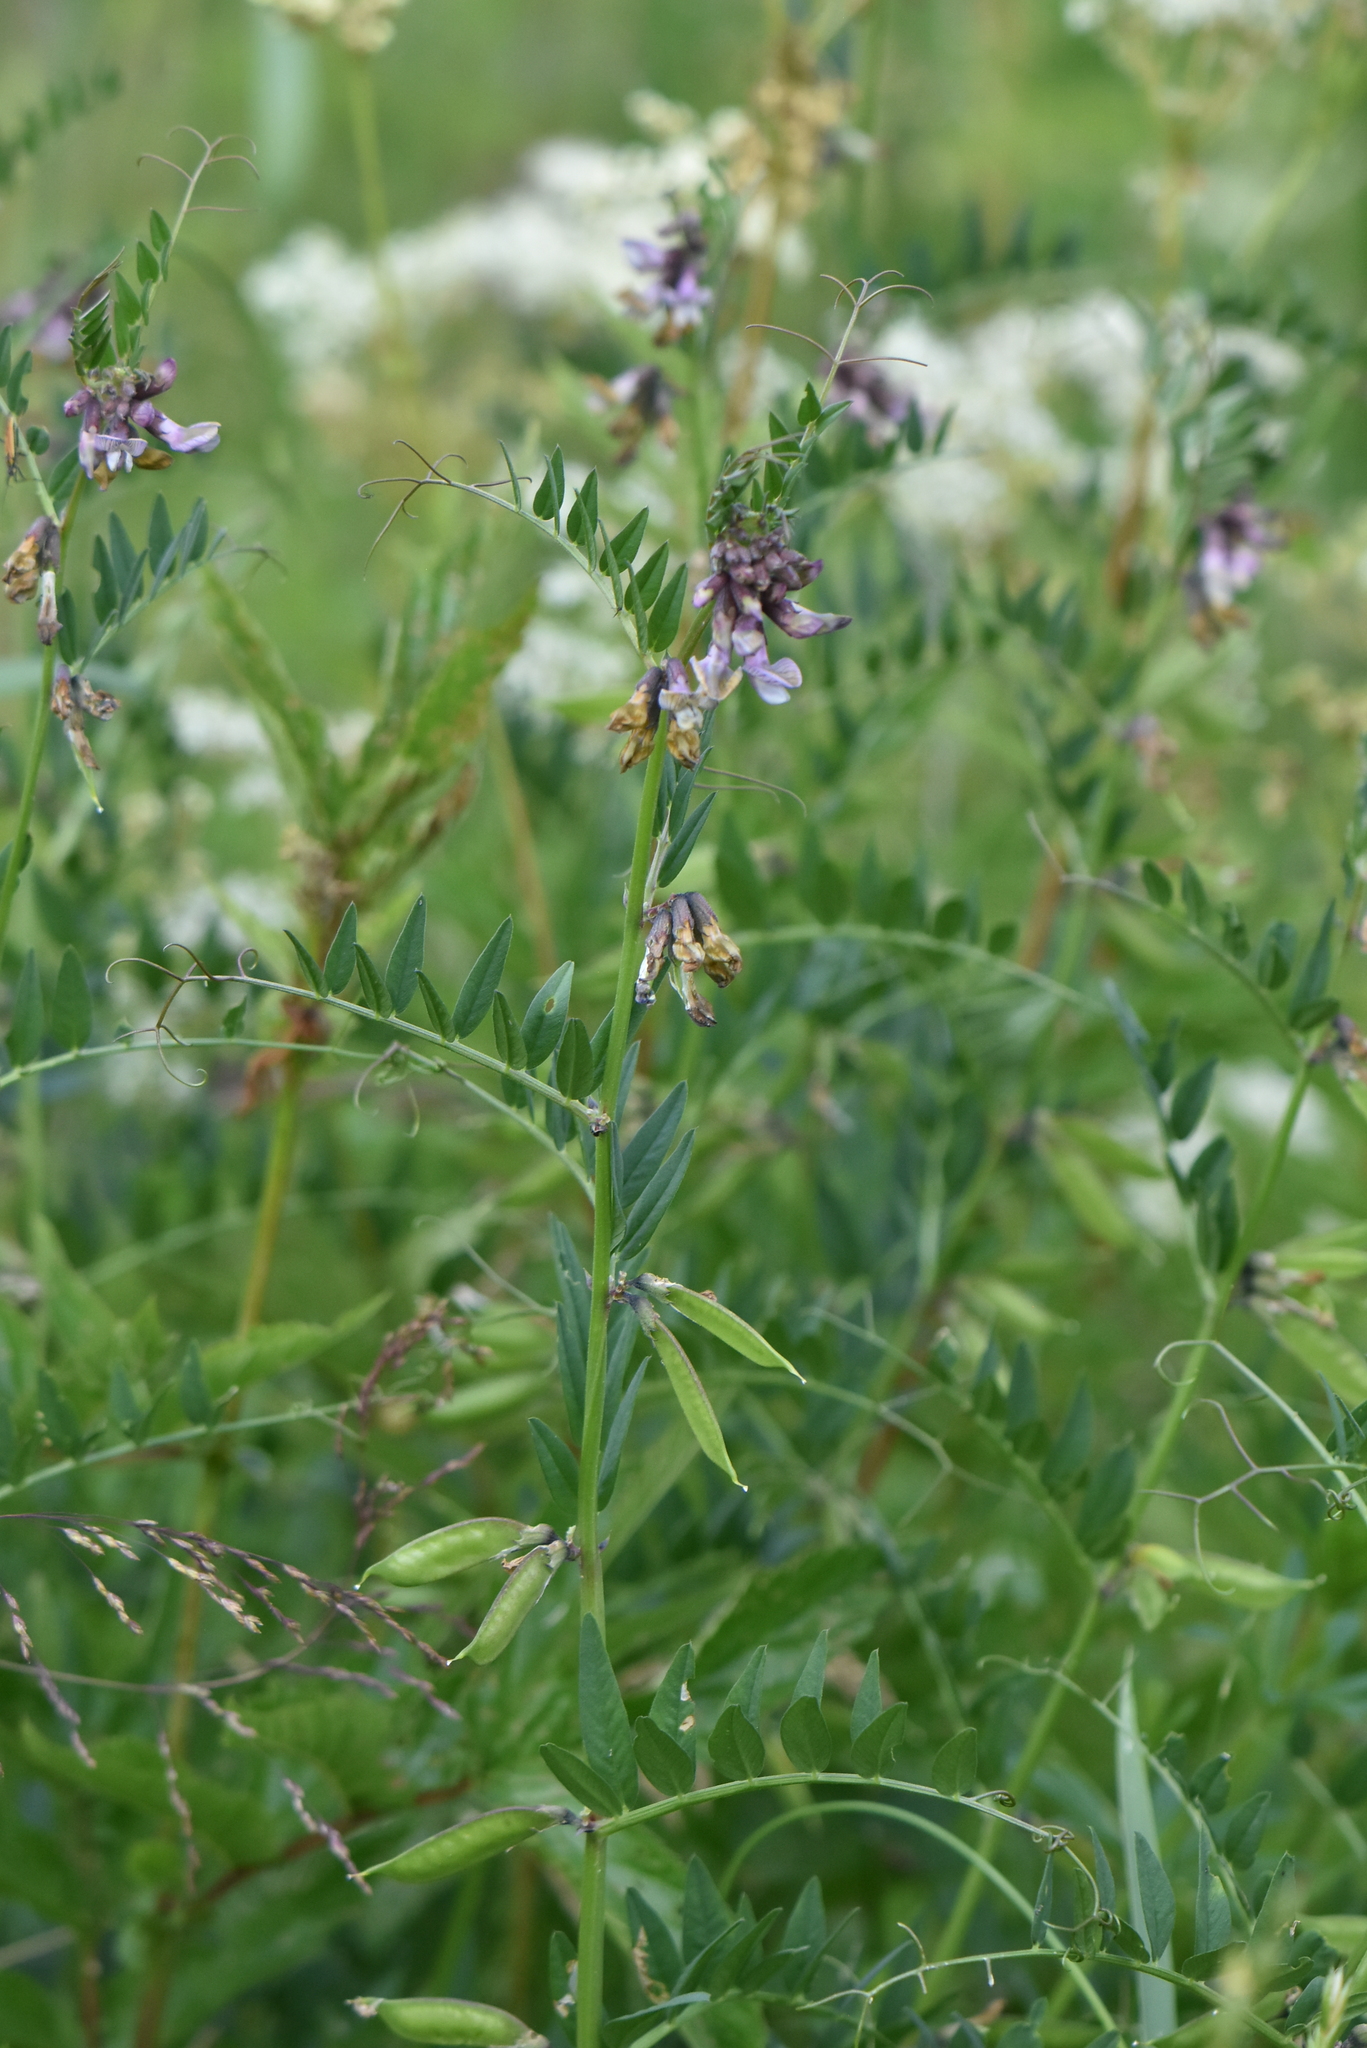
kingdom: Plantae
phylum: Tracheophyta
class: Magnoliopsida
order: Fabales
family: Fabaceae
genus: Vicia
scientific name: Vicia sepium
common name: Bush vetch
